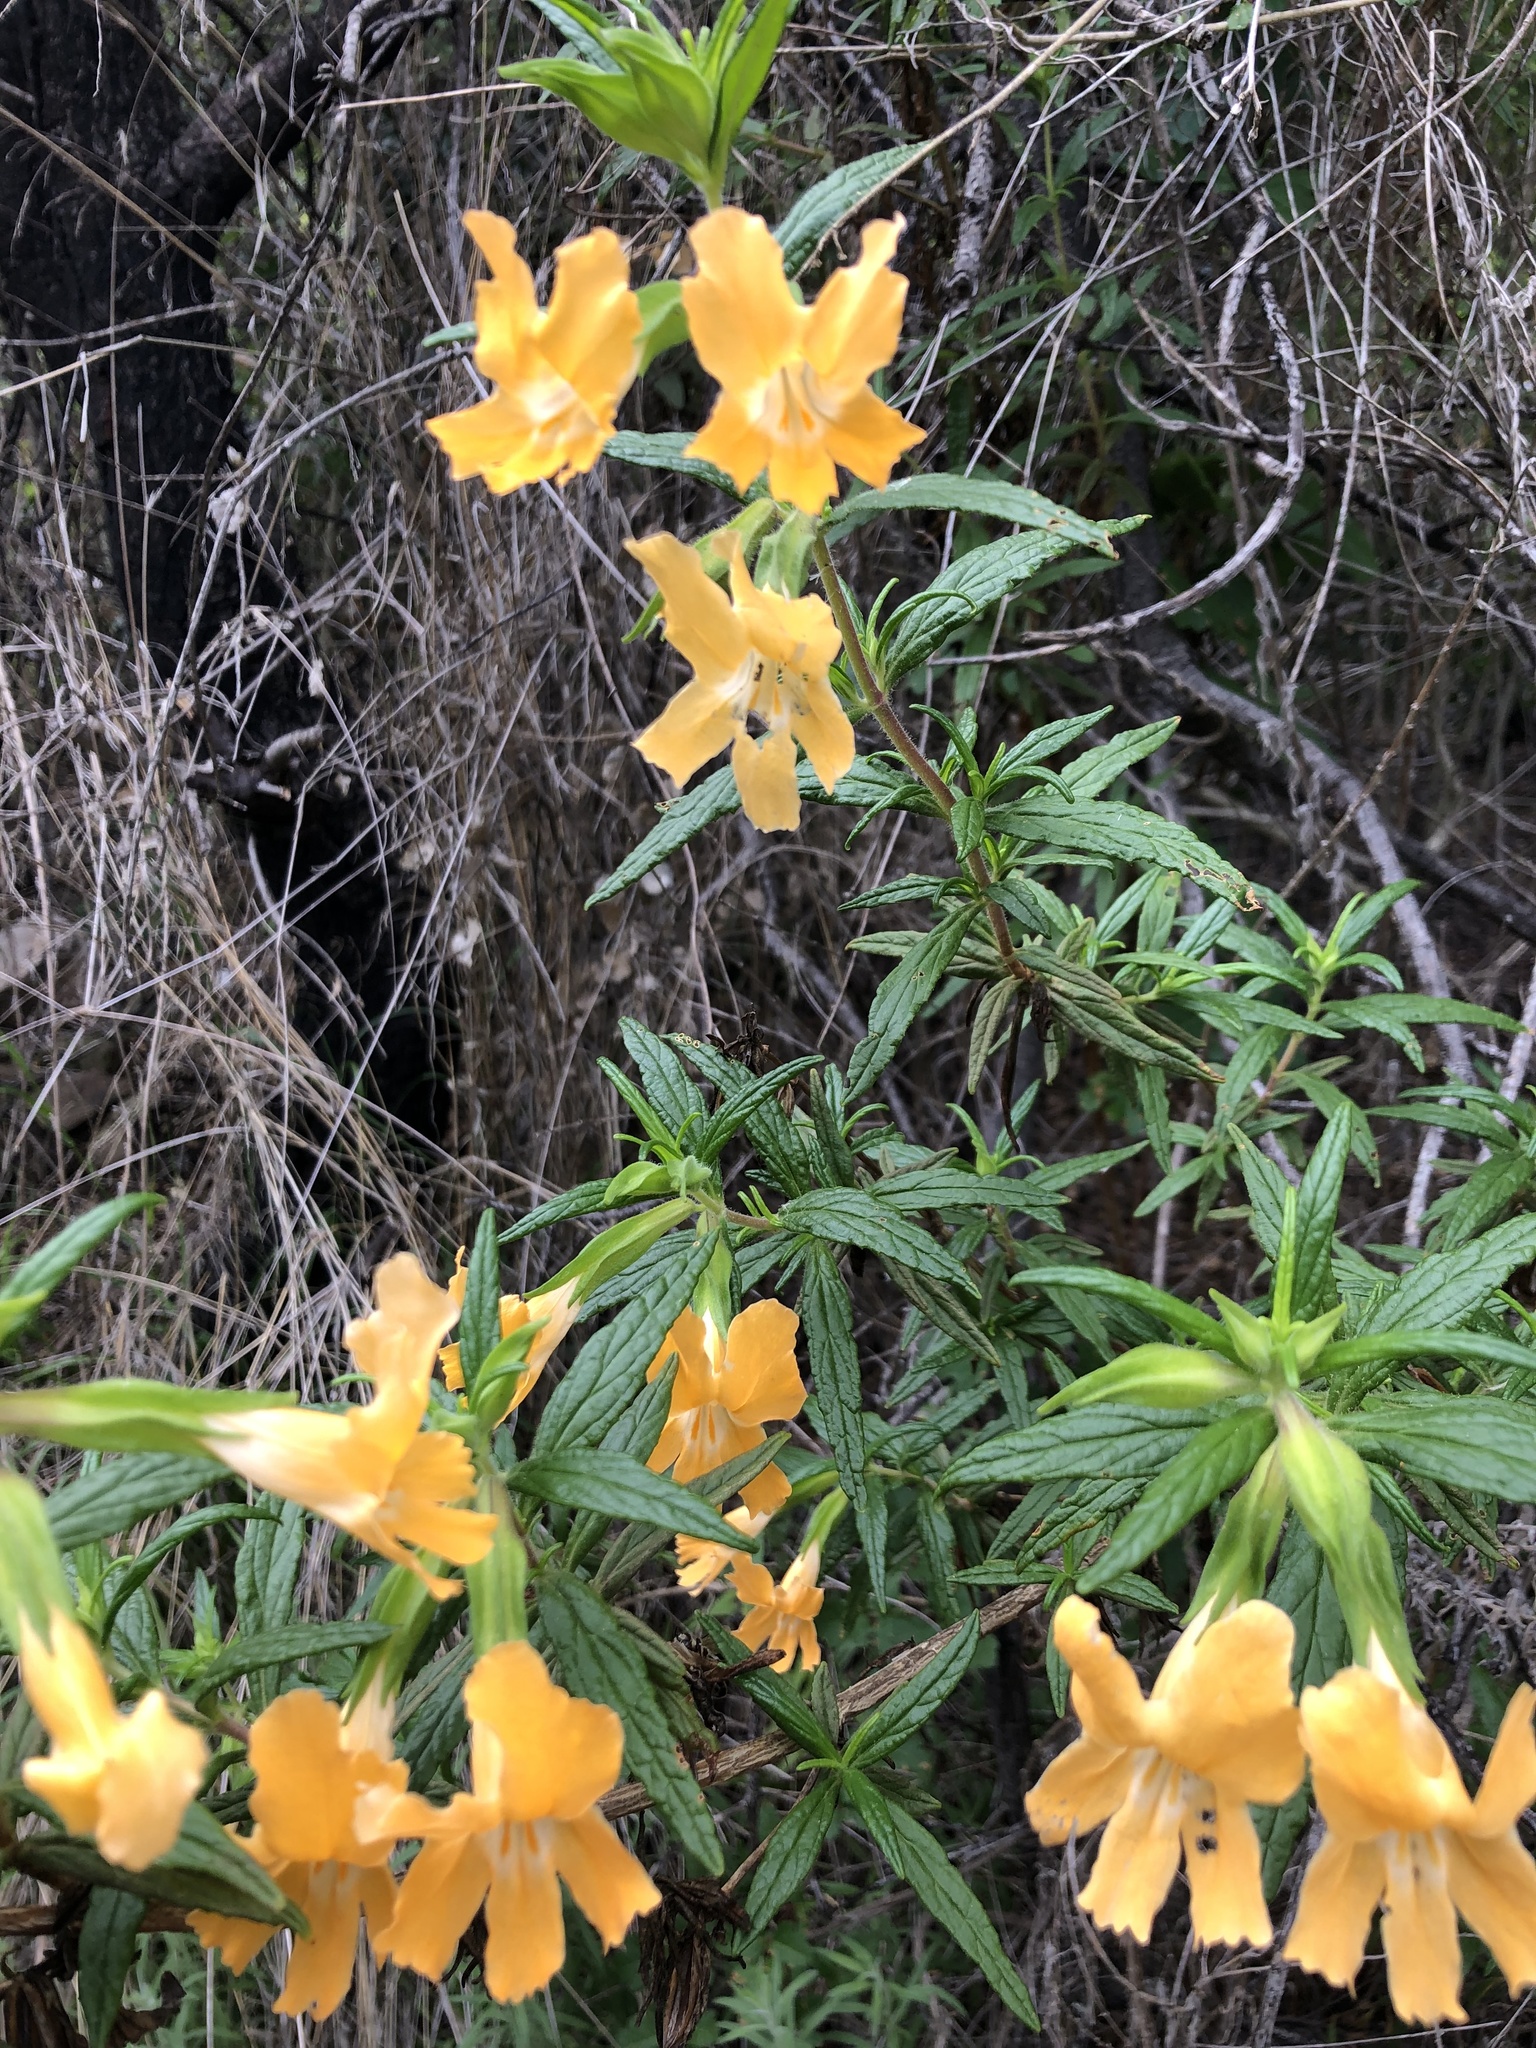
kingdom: Plantae
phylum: Tracheophyta
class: Magnoliopsida
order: Lamiales
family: Phrymaceae
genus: Diplacus
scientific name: Diplacus longiflorus
